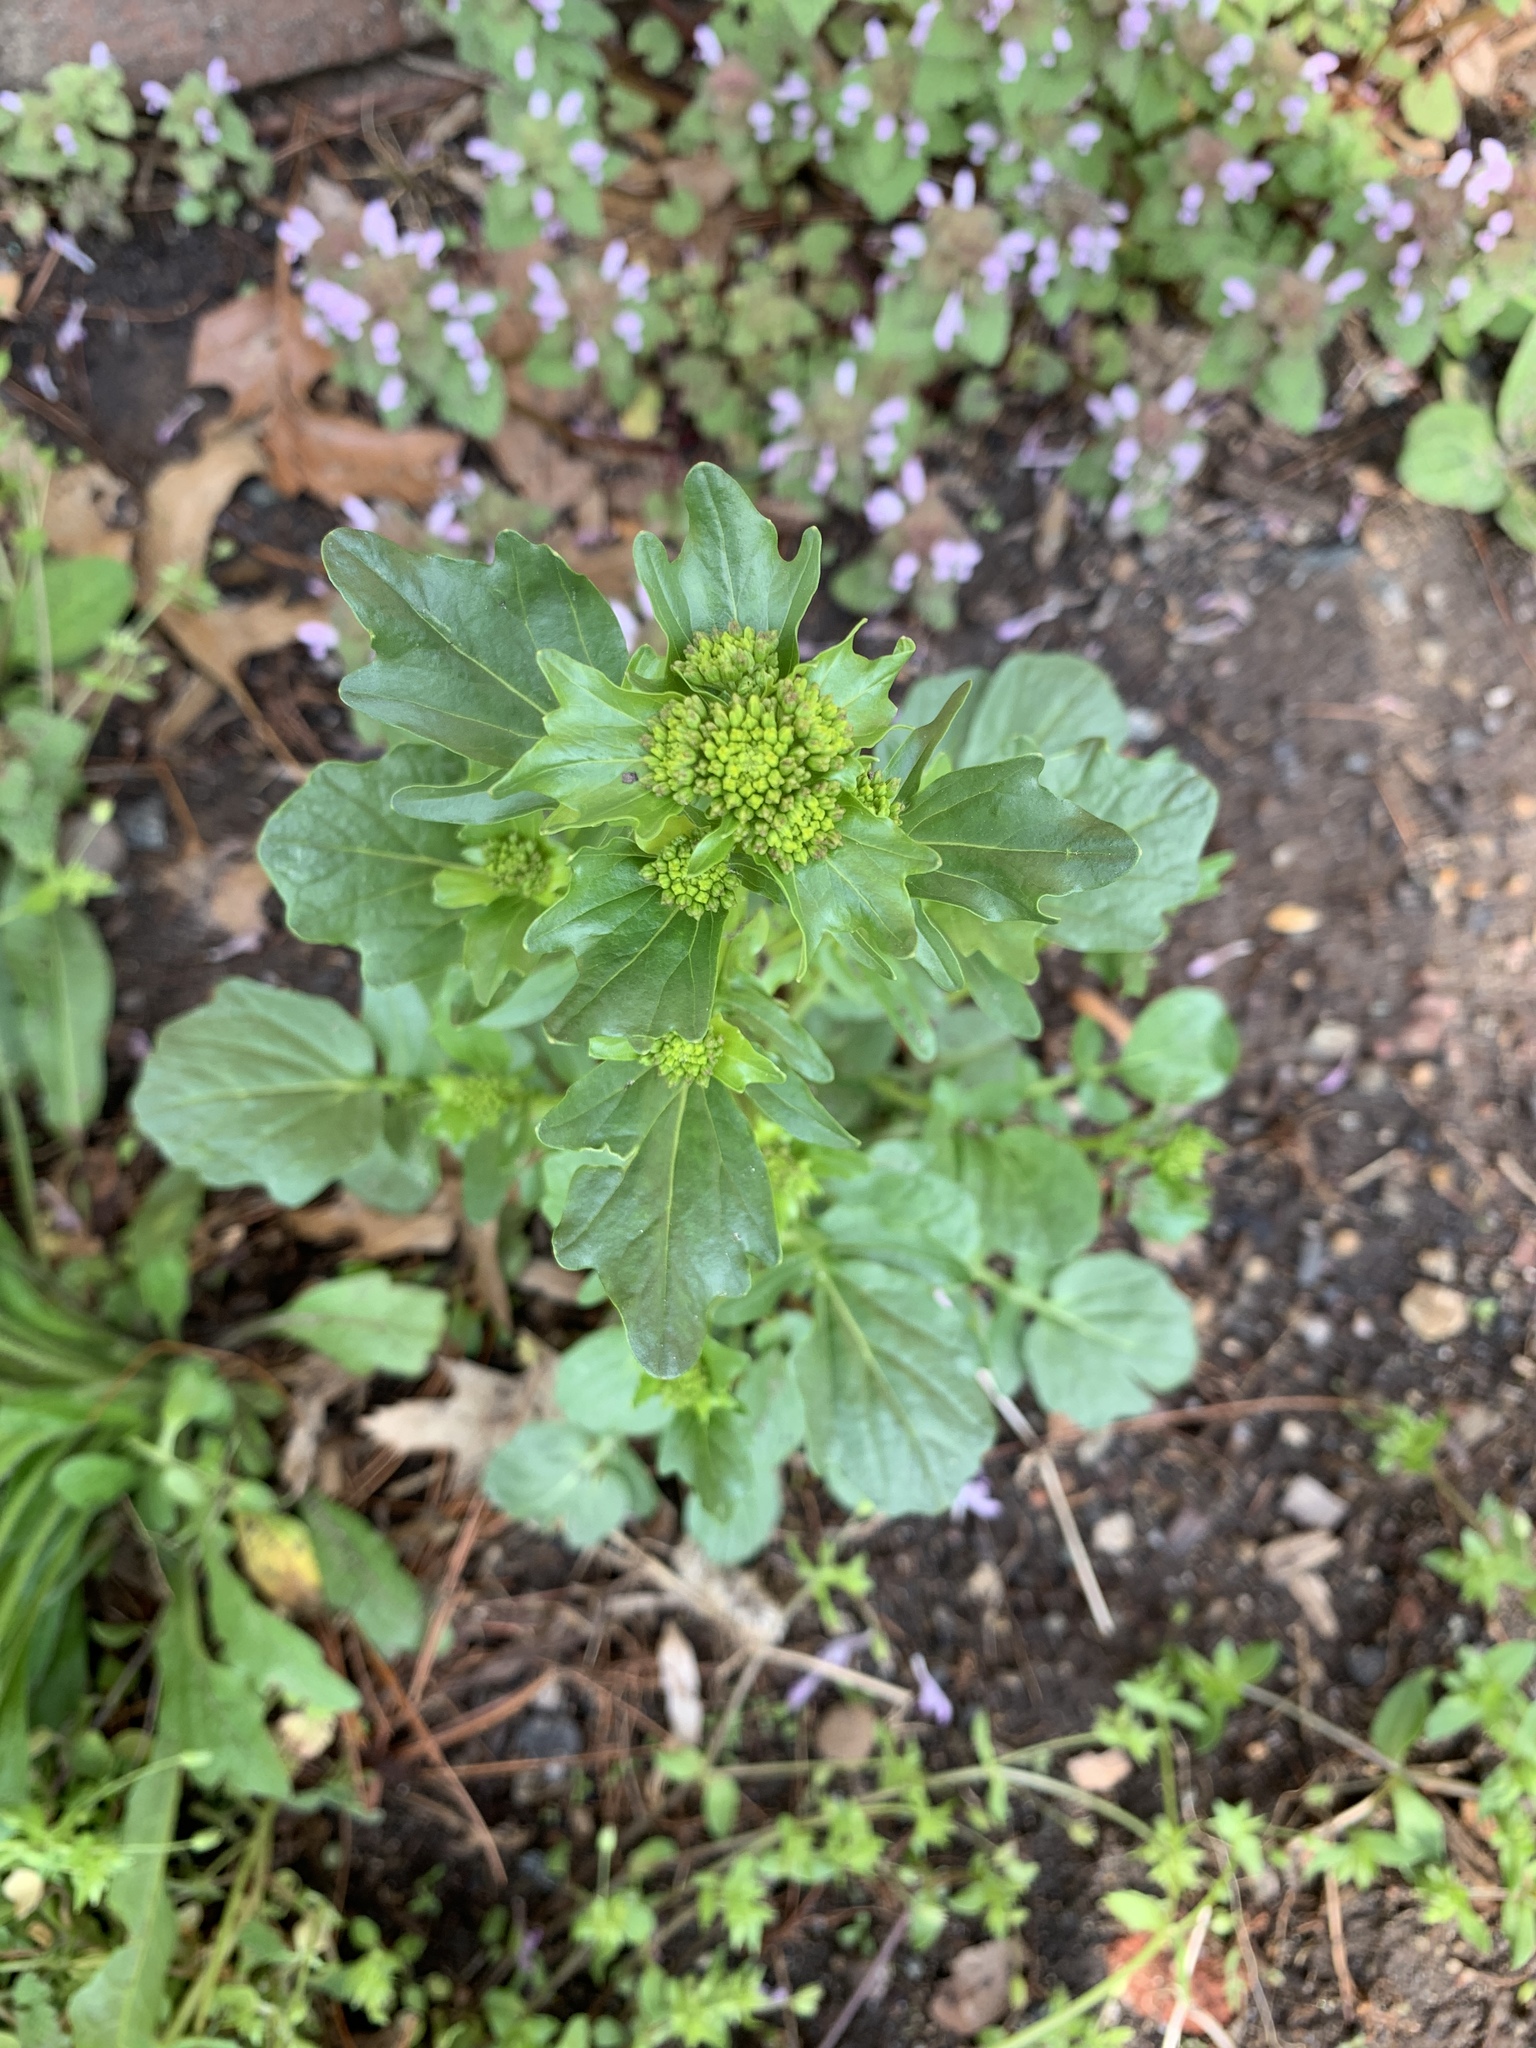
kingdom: Plantae
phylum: Tracheophyta
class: Magnoliopsida
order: Brassicales
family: Brassicaceae
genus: Barbarea
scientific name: Barbarea vulgaris
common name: Cressy-greens
